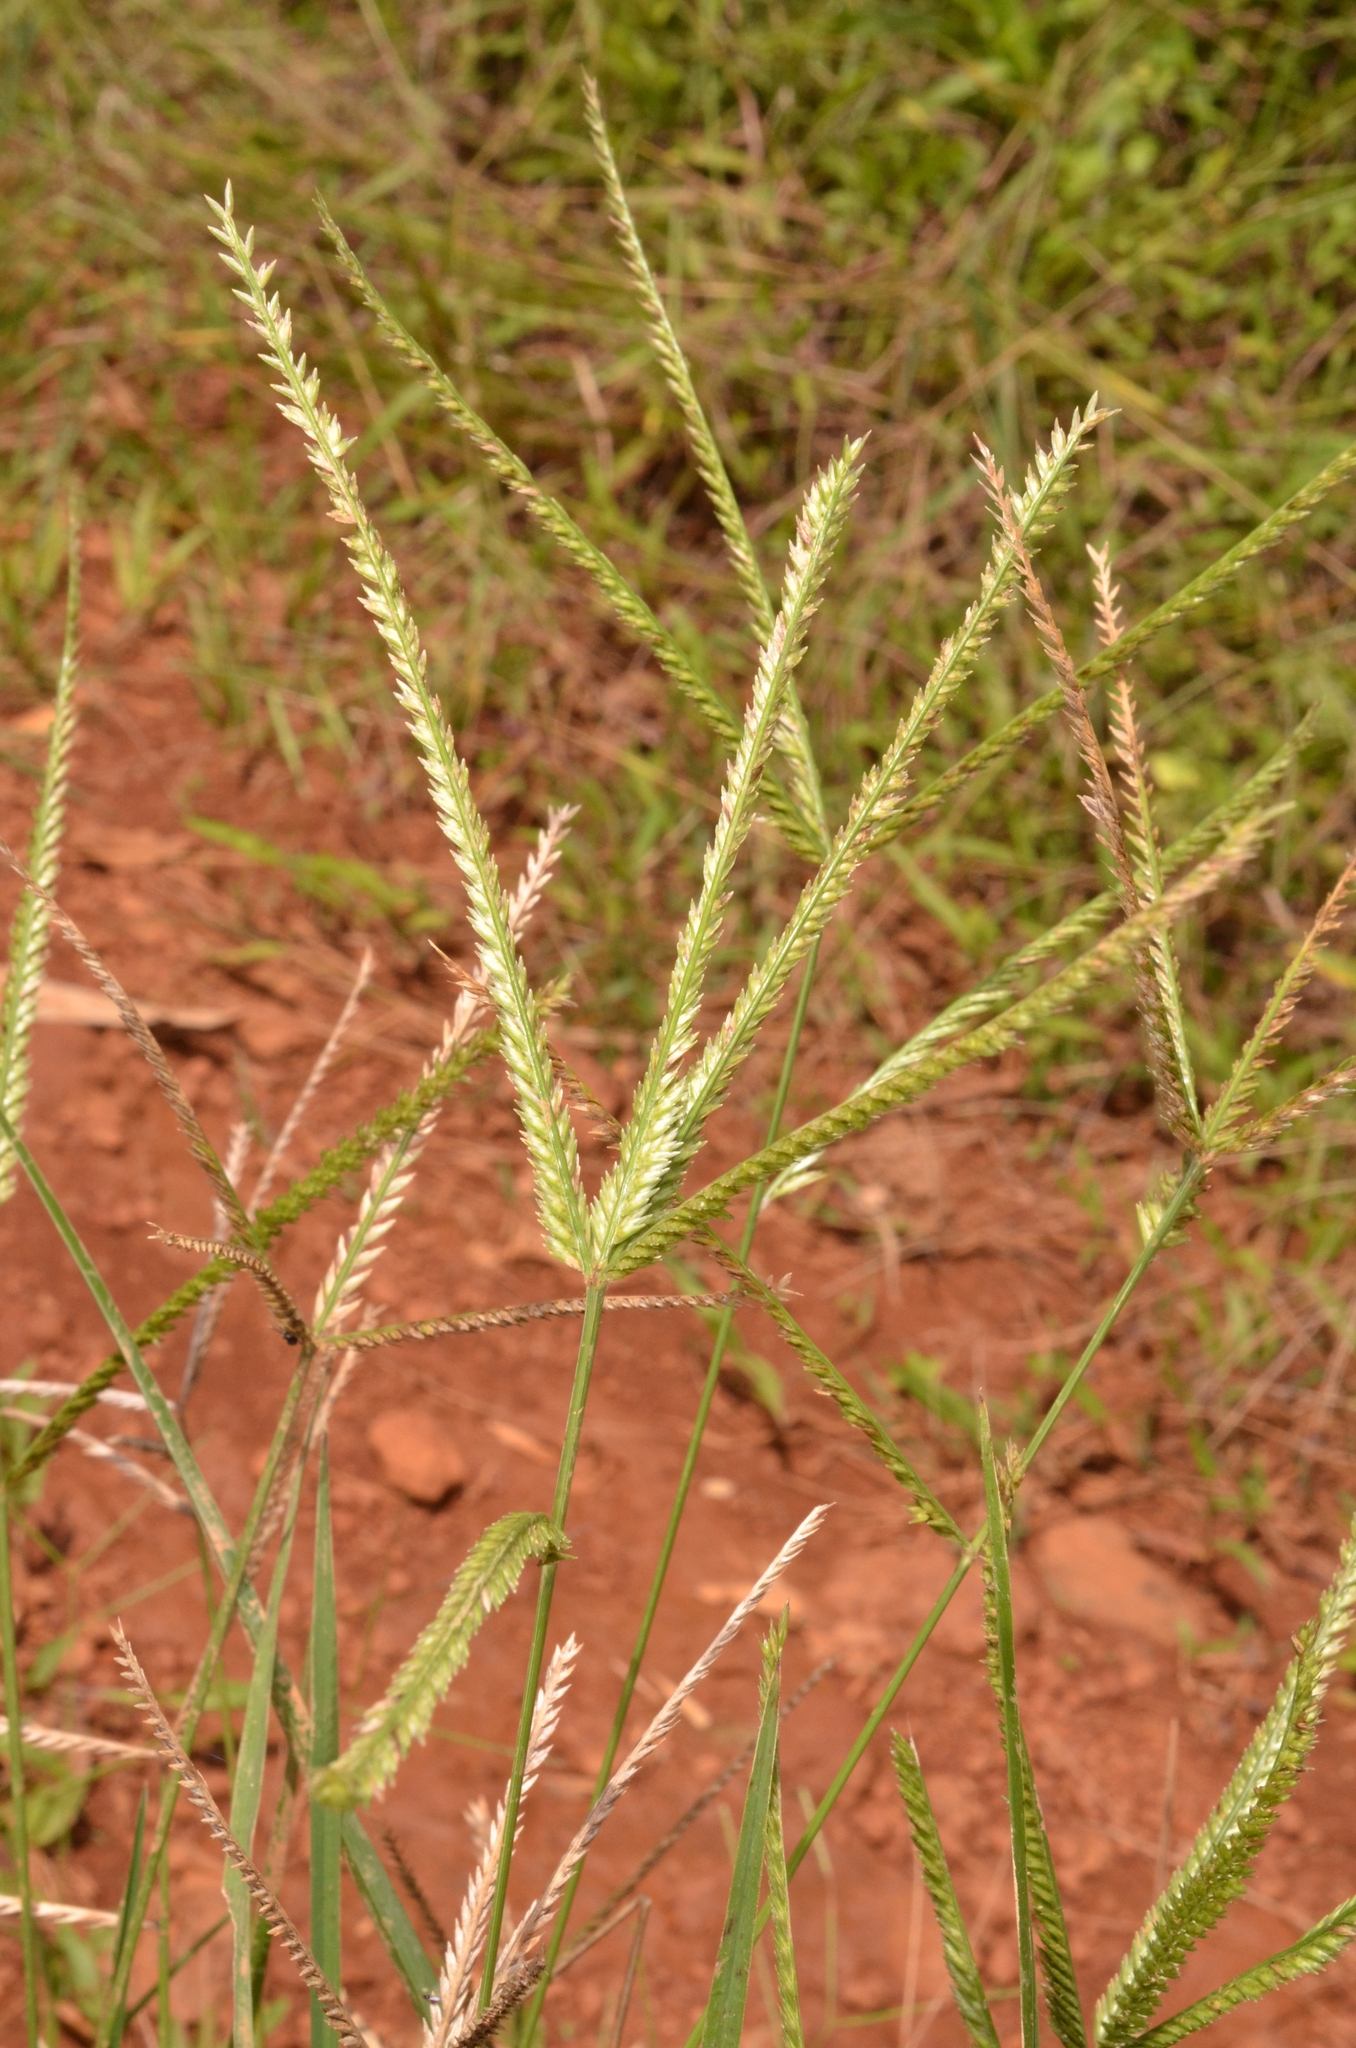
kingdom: Plantae
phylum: Tracheophyta
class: Liliopsida
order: Poales
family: Poaceae
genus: Eleusine
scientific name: Eleusine indica
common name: Yard-grass
